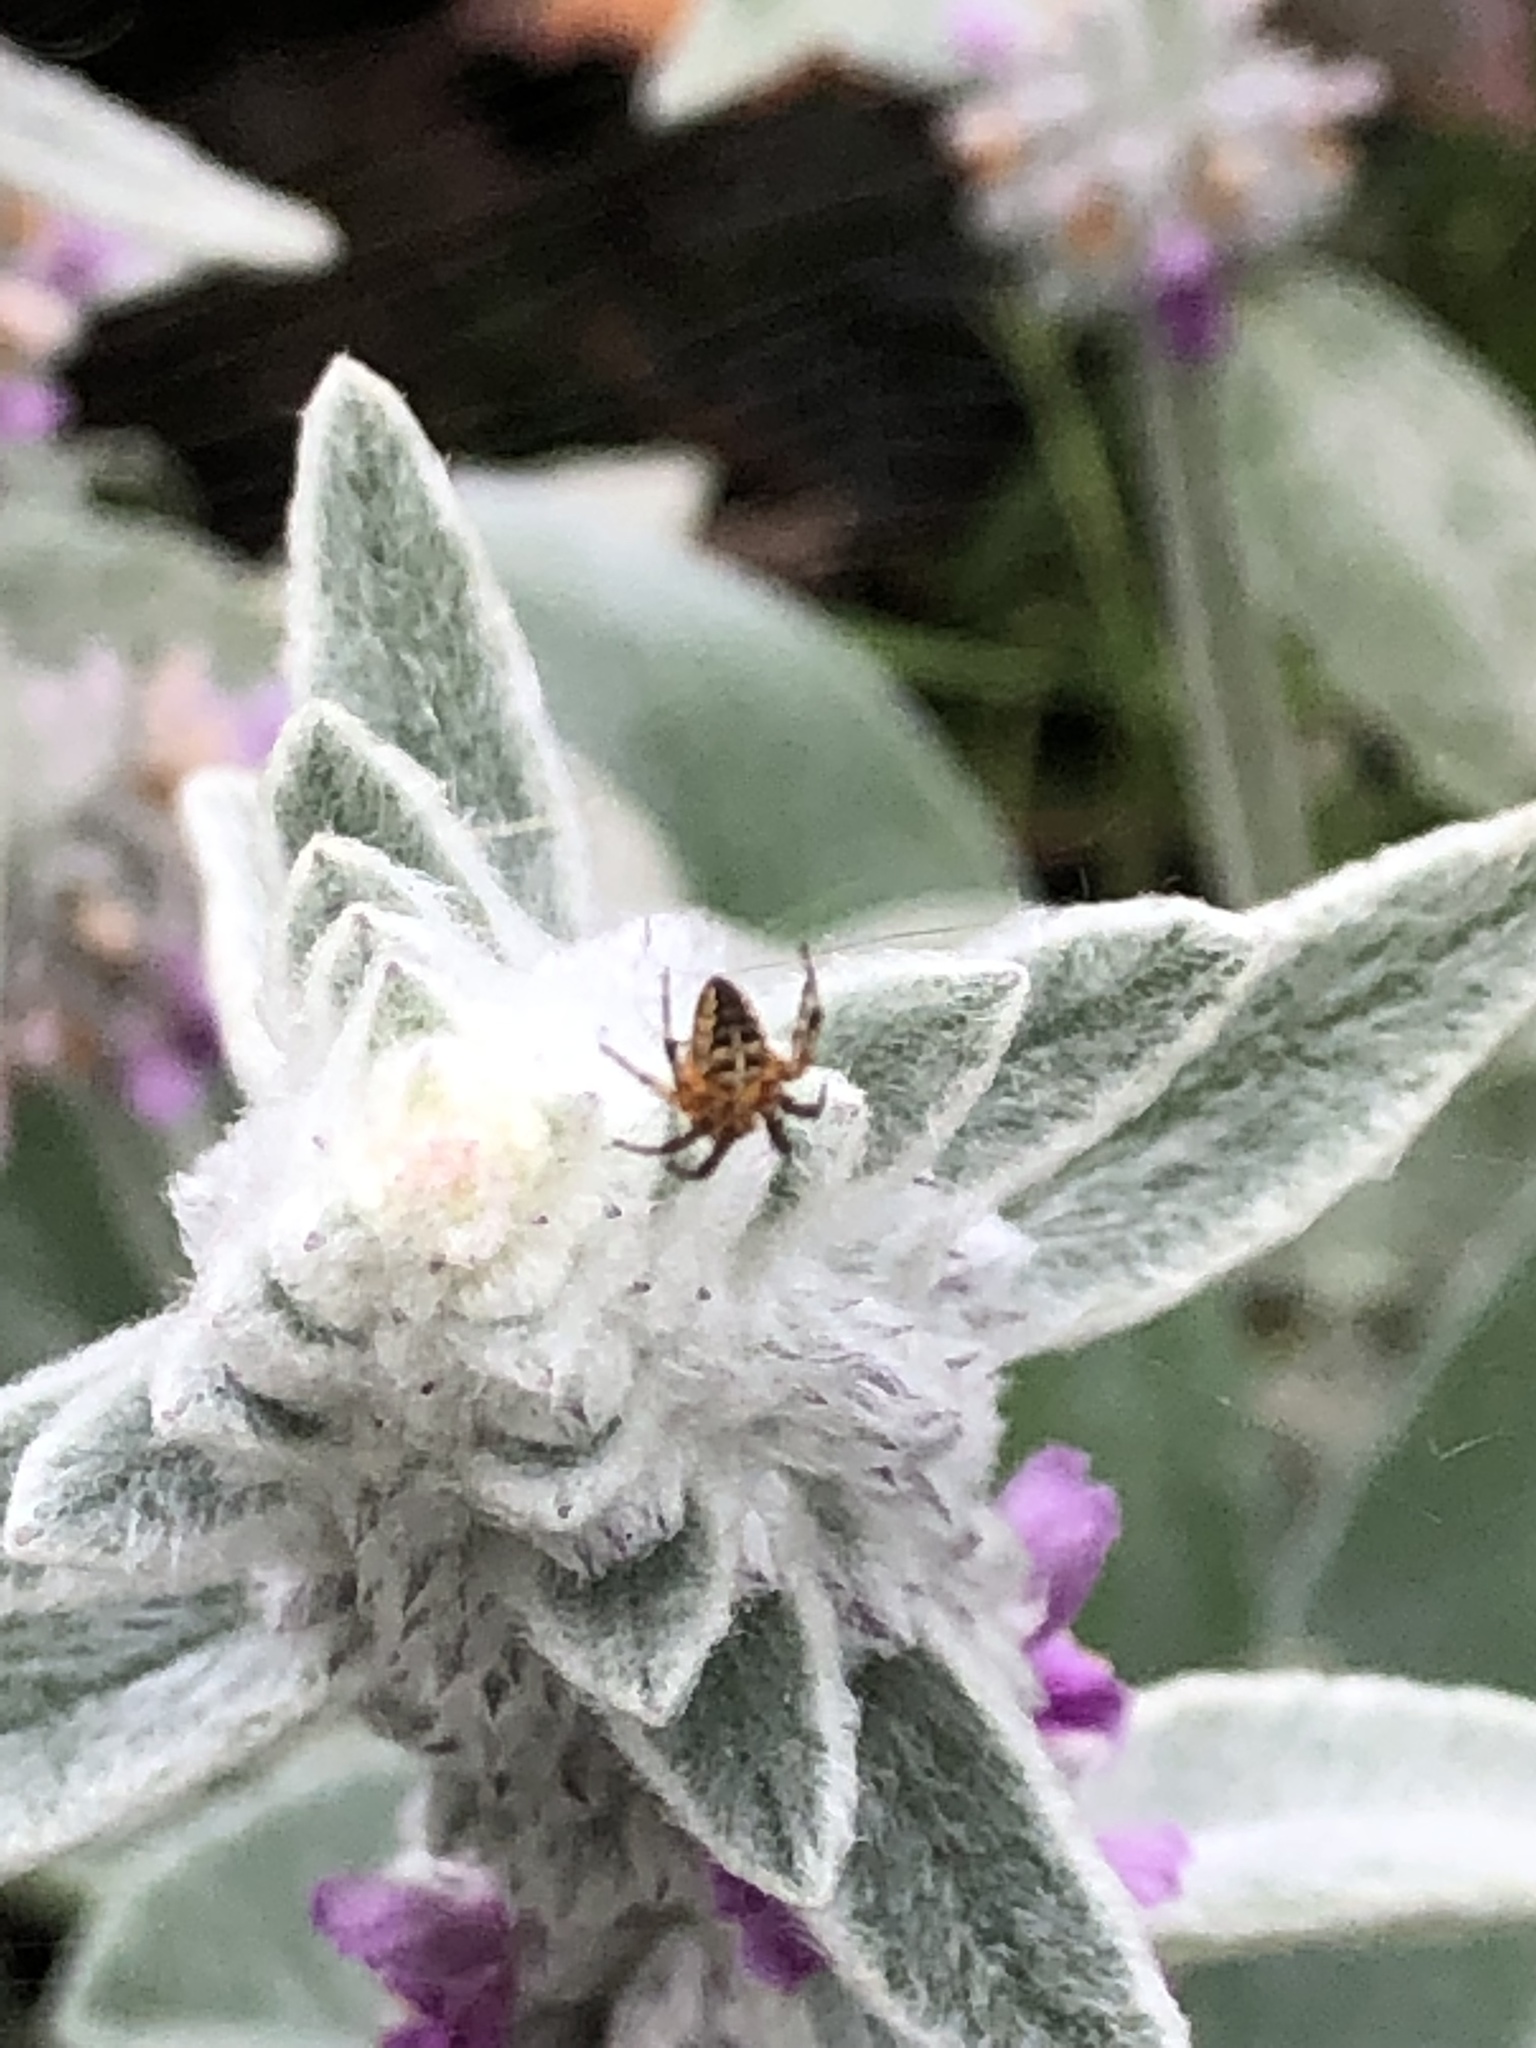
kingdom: Animalia
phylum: Arthropoda
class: Arachnida
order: Araneae
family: Araneidae
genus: Araneus
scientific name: Araneus diadematus
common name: Cross orbweaver
